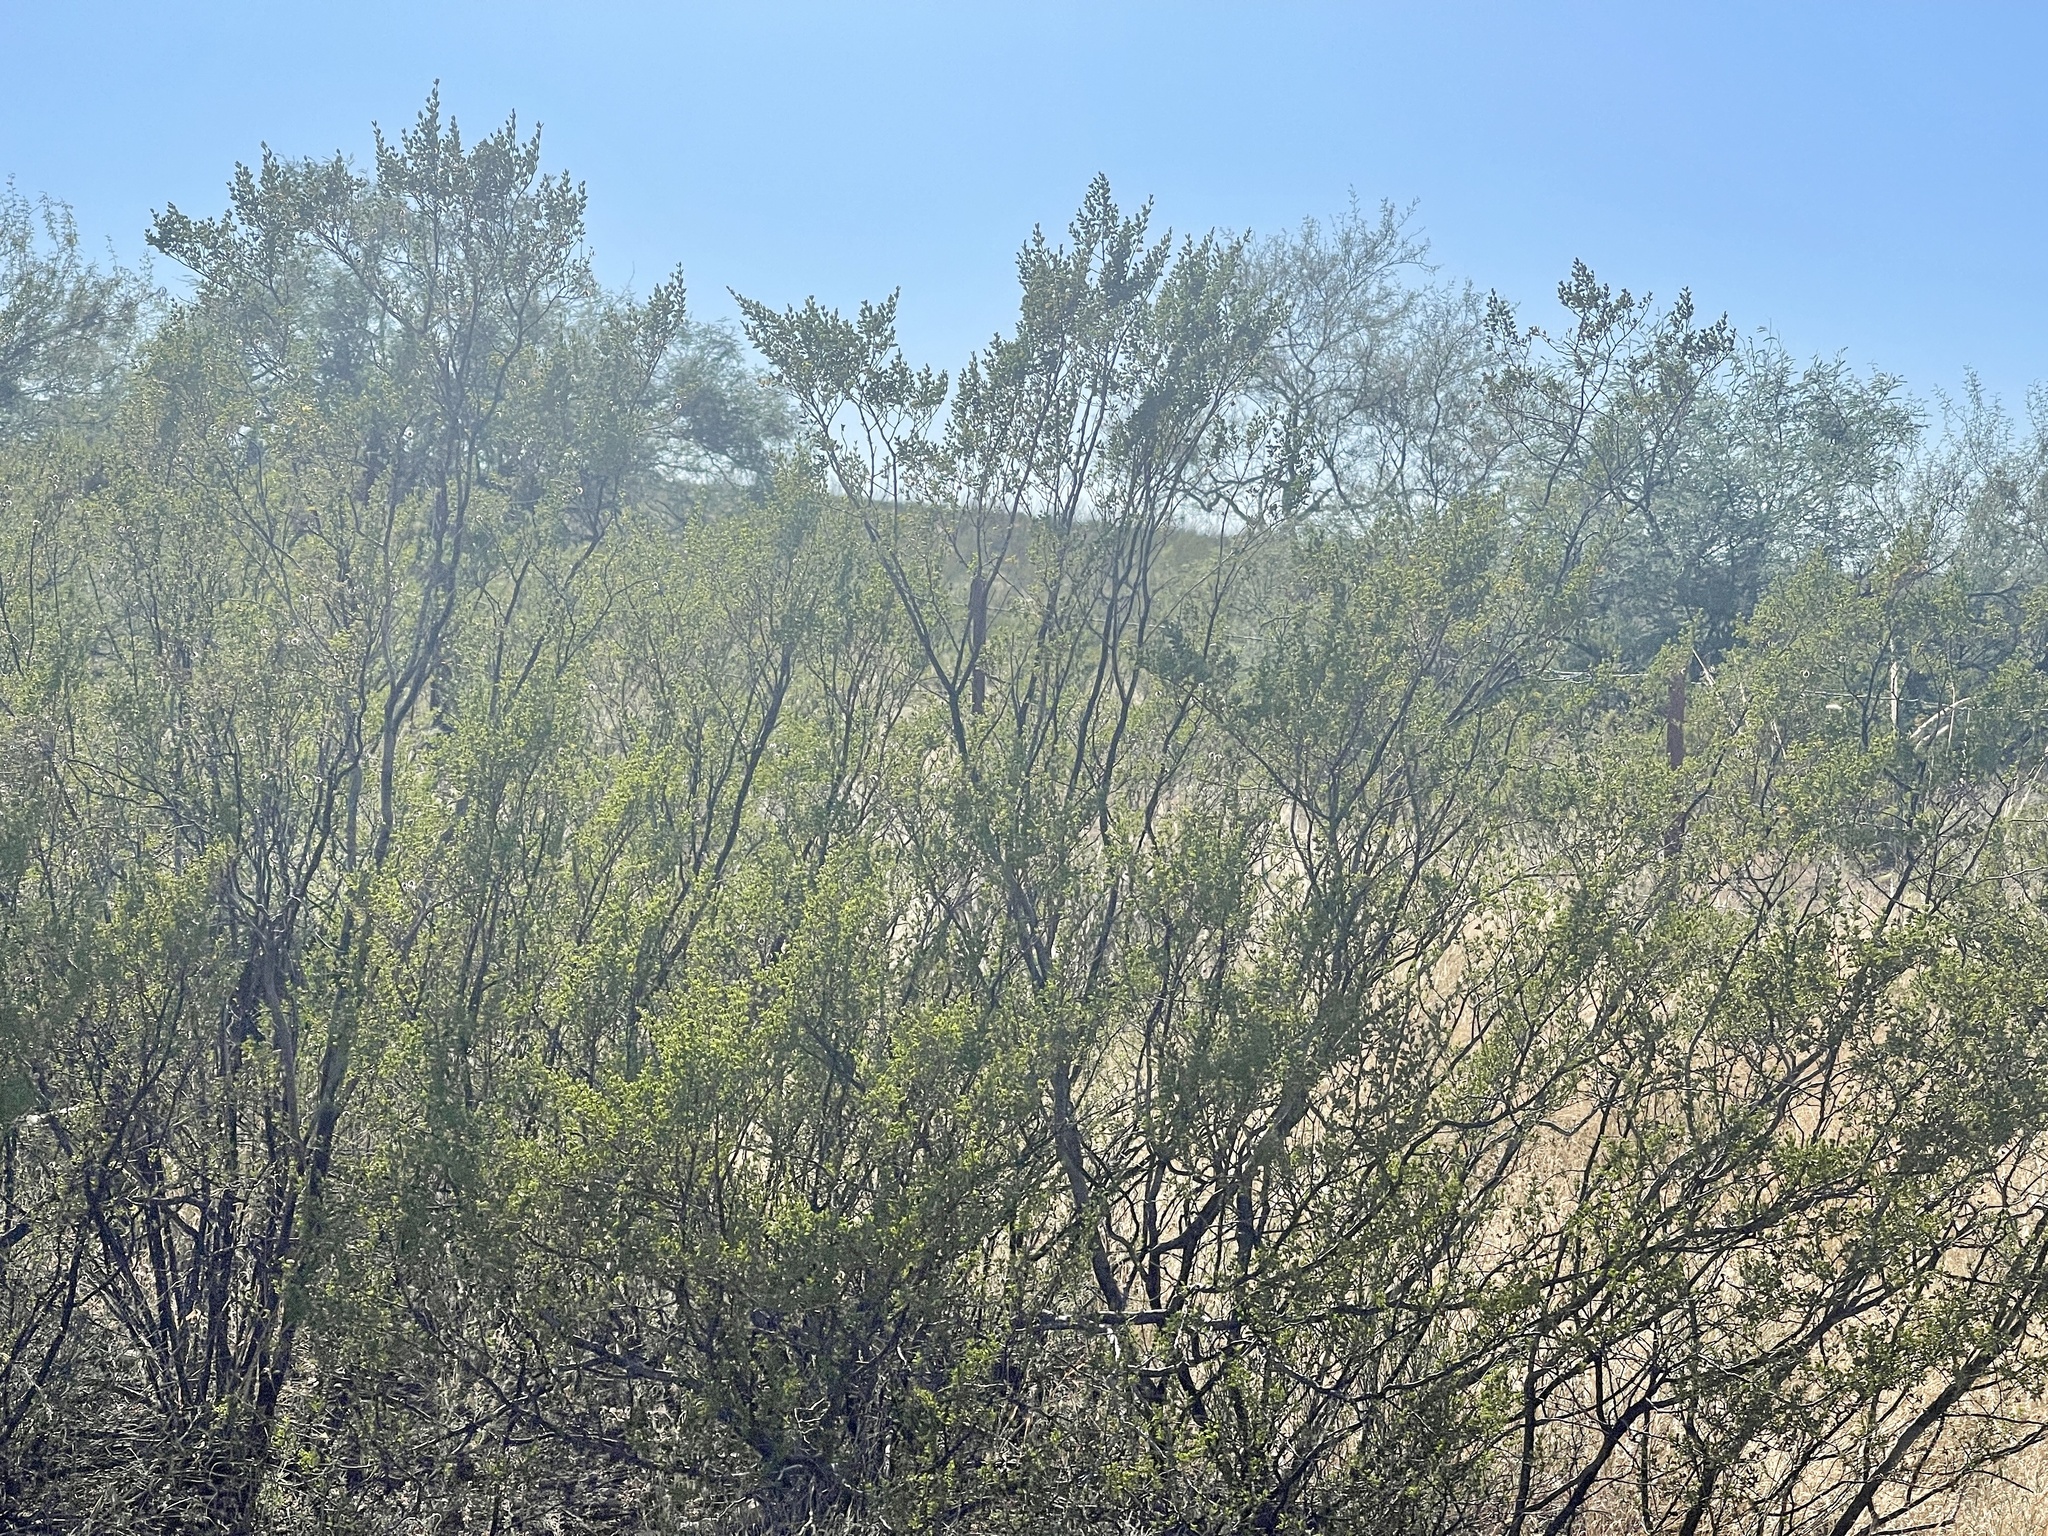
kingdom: Plantae
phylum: Tracheophyta
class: Magnoliopsida
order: Zygophyllales
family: Zygophyllaceae
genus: Larrea
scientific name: Larrea tridentata
